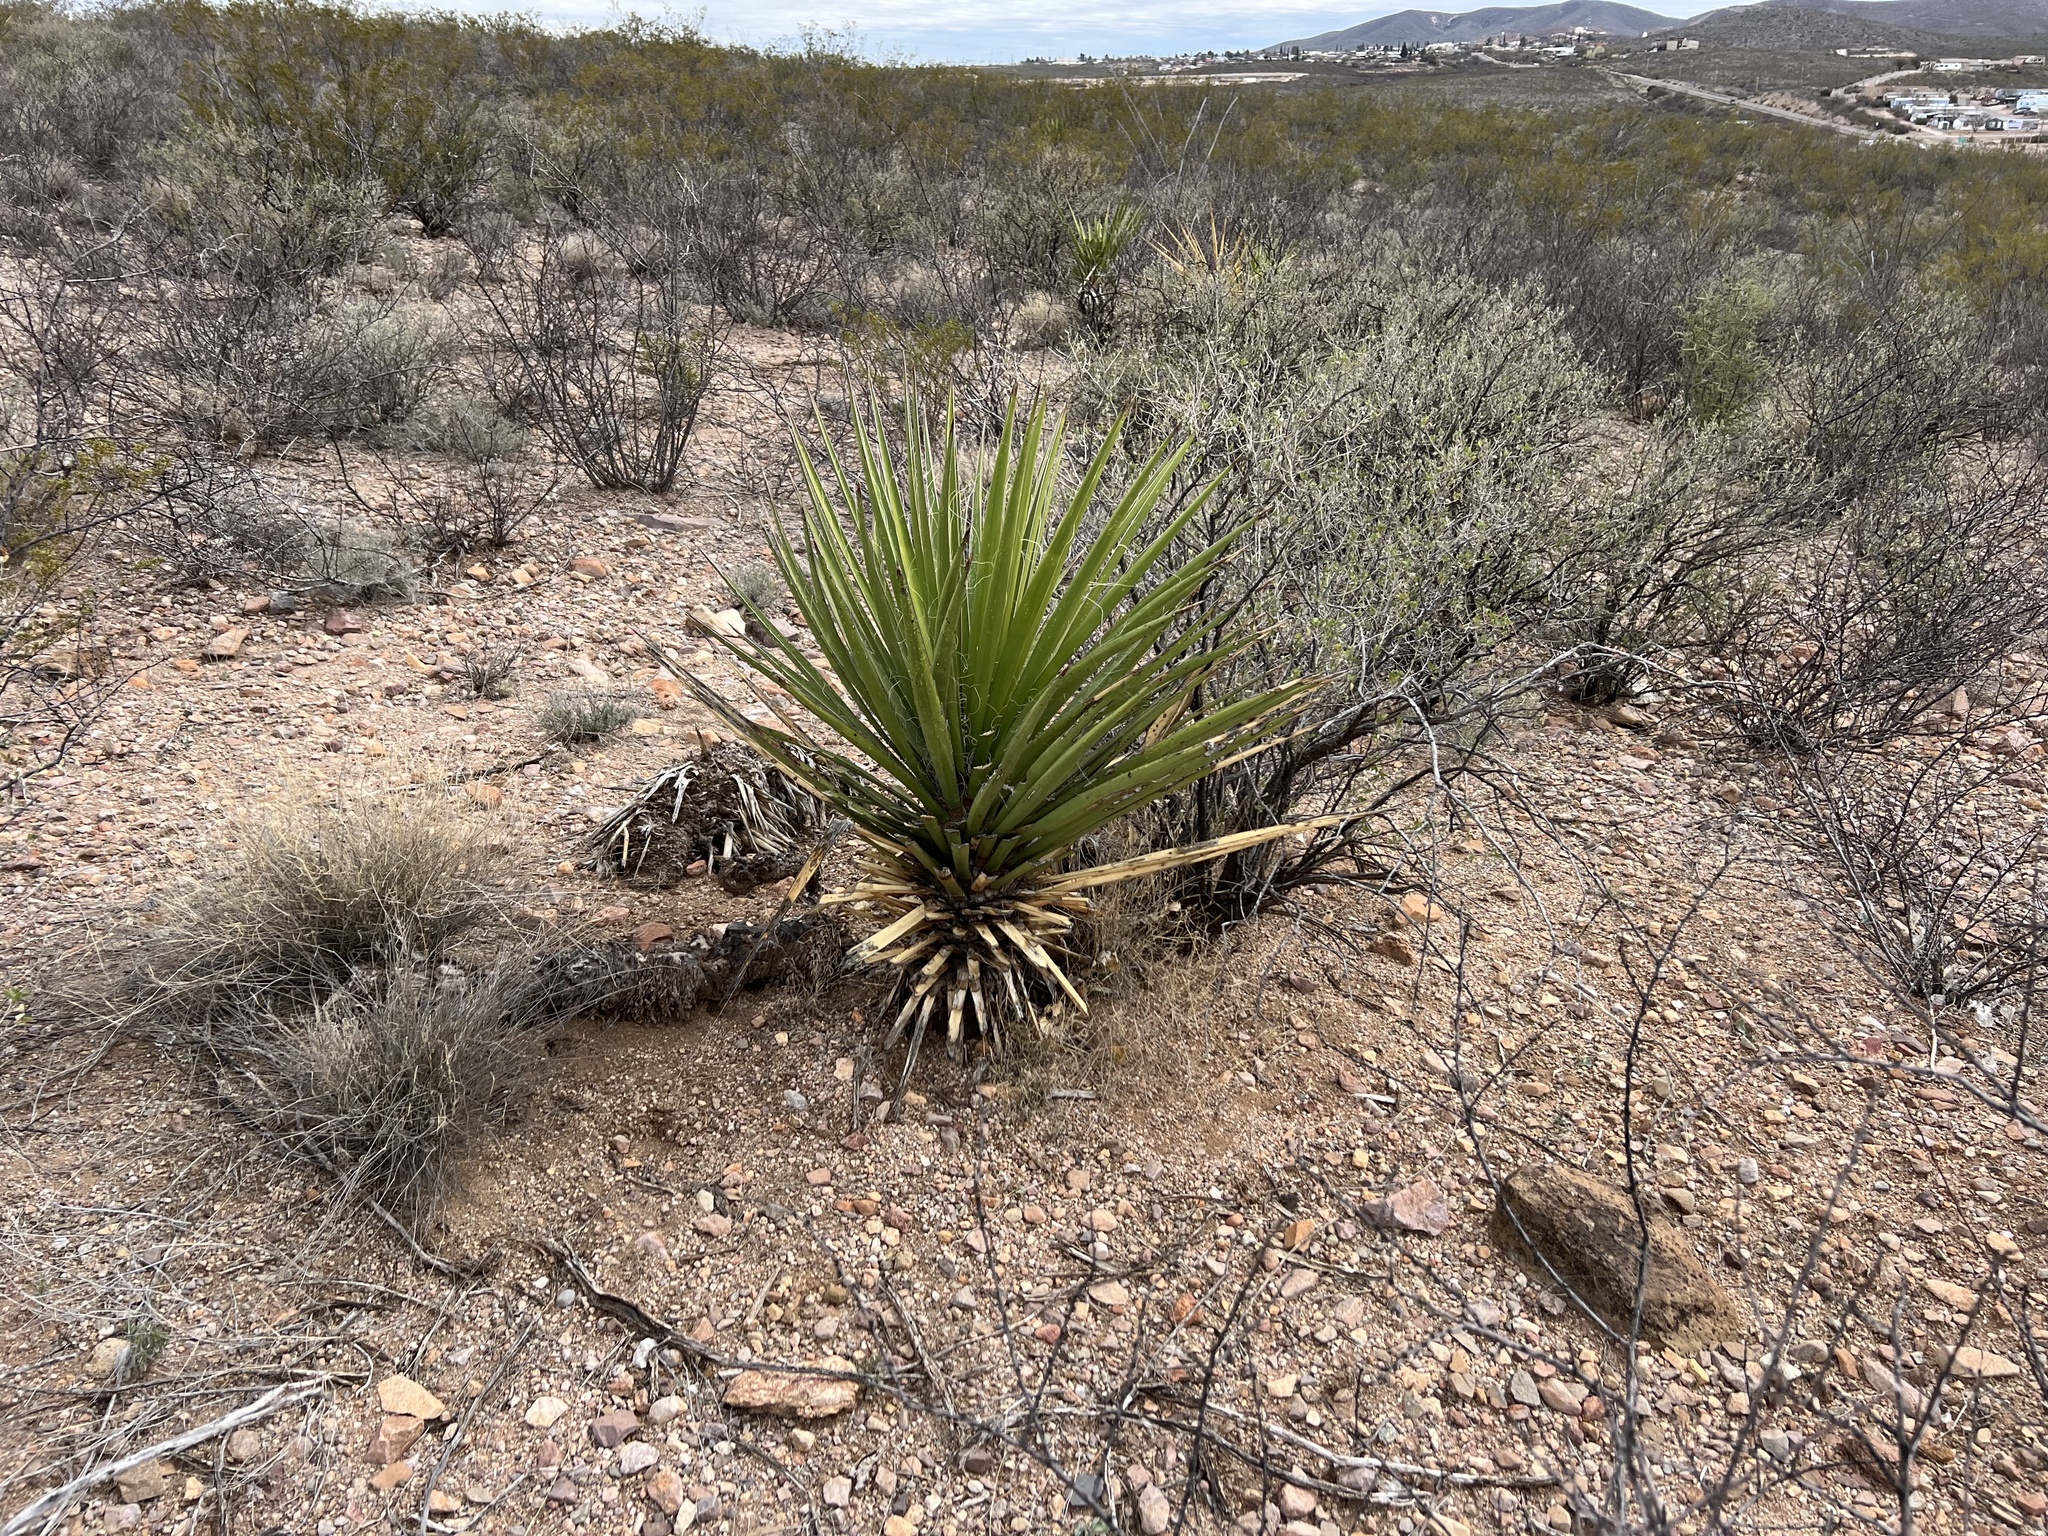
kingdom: Plantae
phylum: Tracheophyta
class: Liliopsida
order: Asparagales
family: Asparagaceae
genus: Yucca
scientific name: Yucca baccata
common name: Banana yucca
